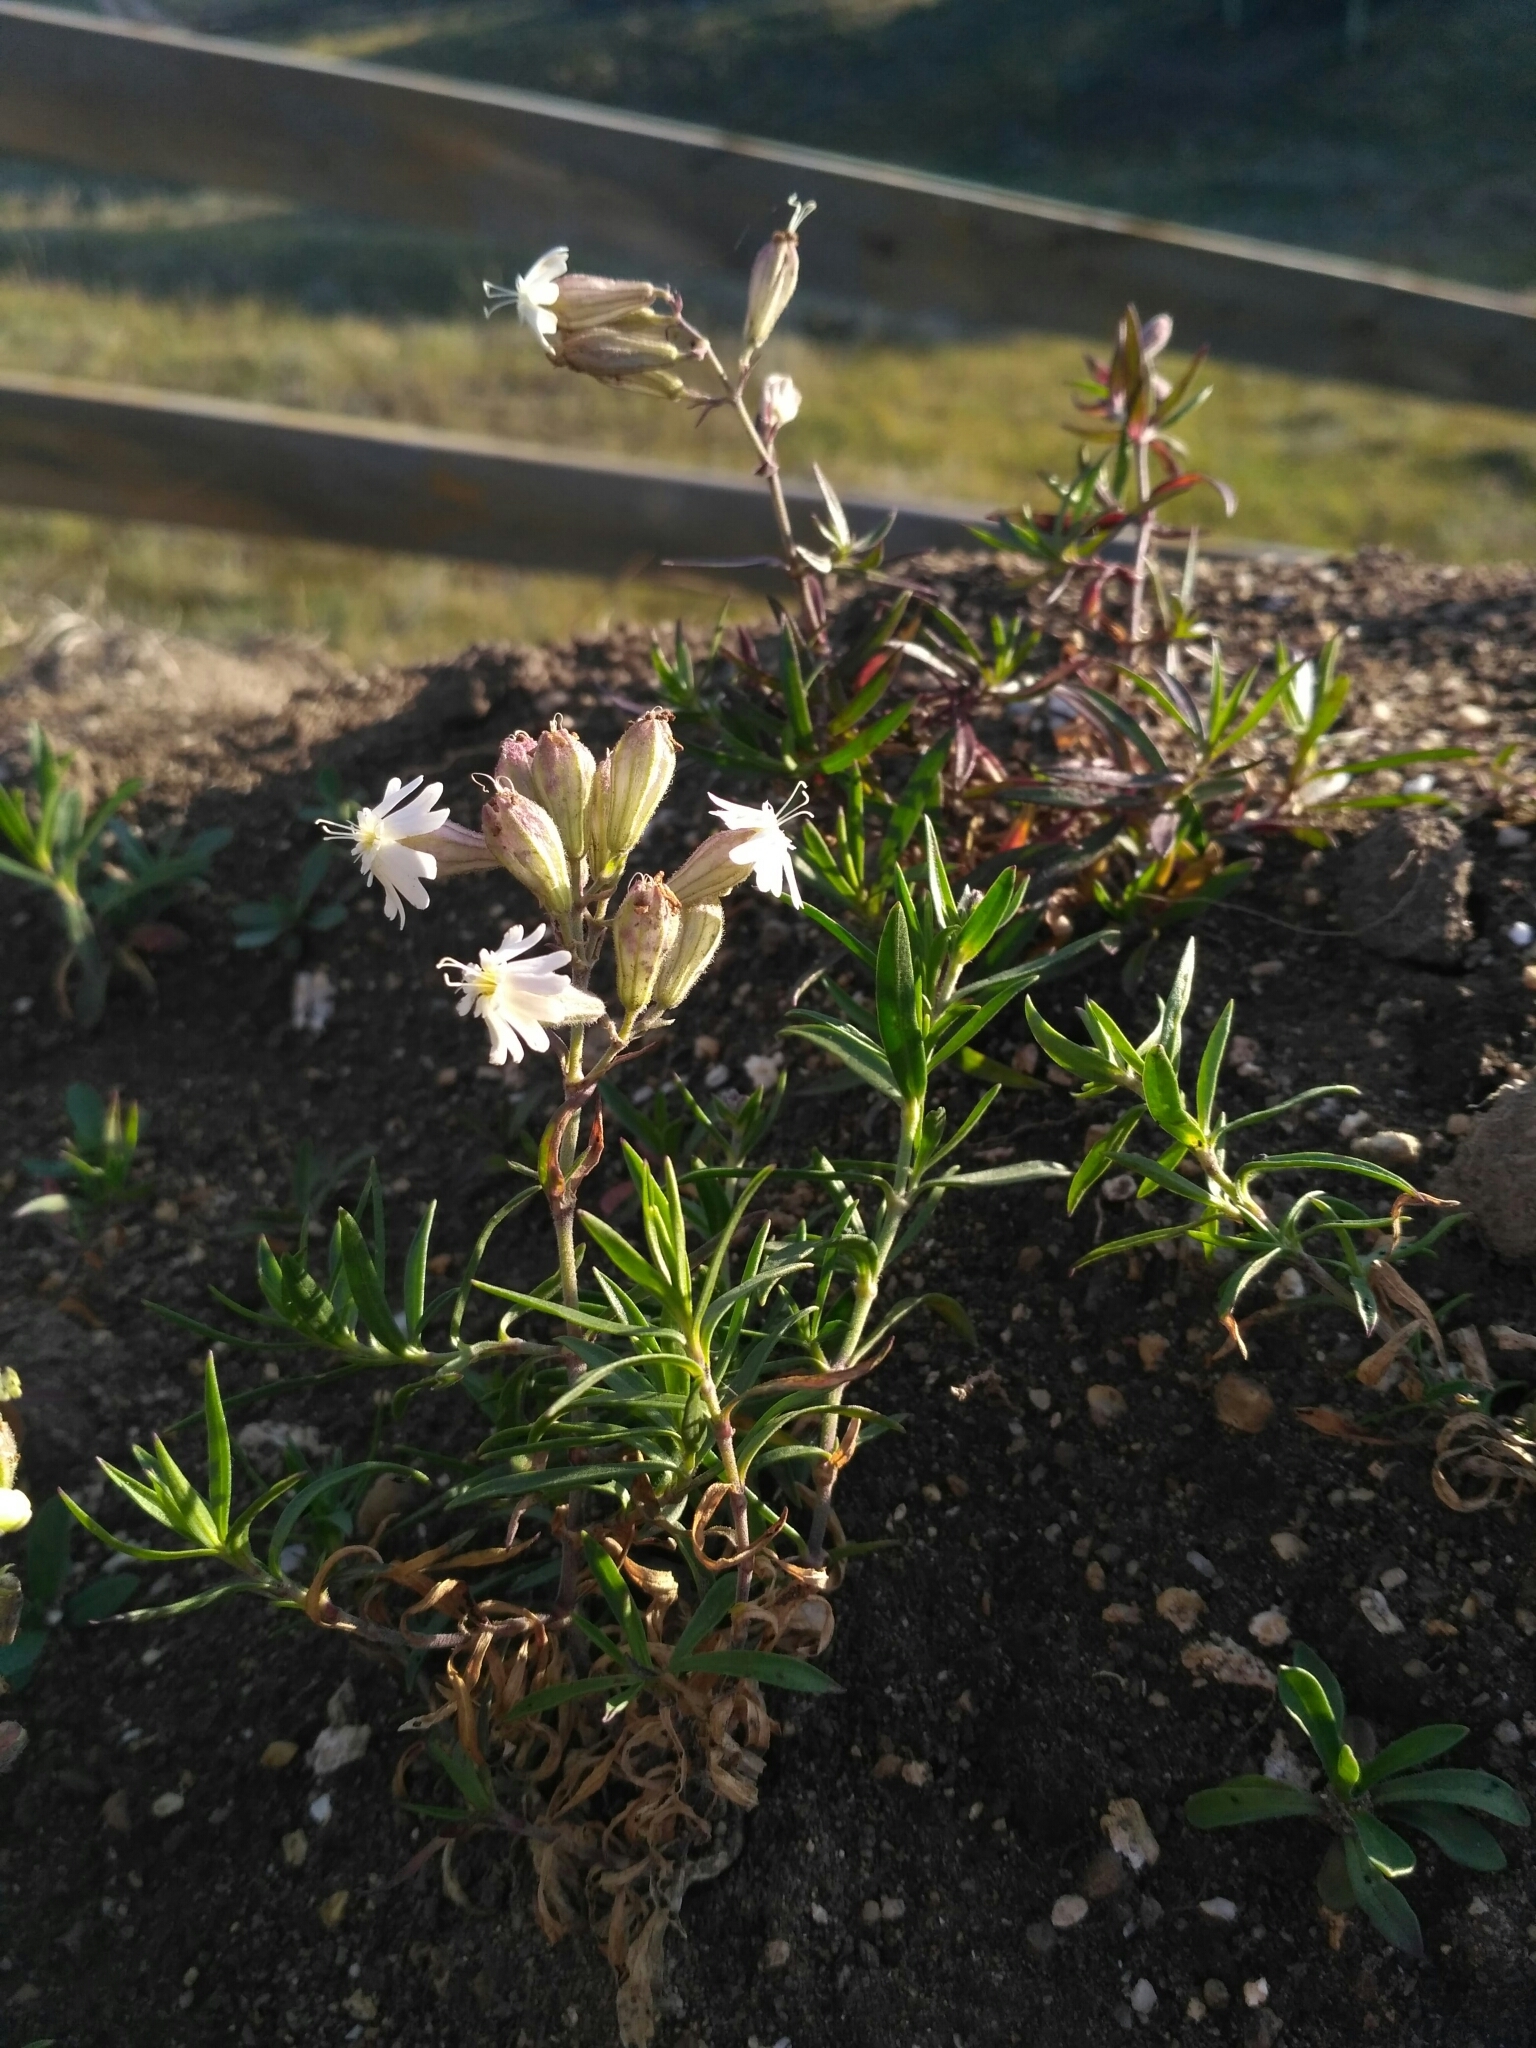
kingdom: Plantae
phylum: Tracheophyta
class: Magnoliopsida
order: Caryophyllales
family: Caryophyllaceae
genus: Silene
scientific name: Silene amoena
